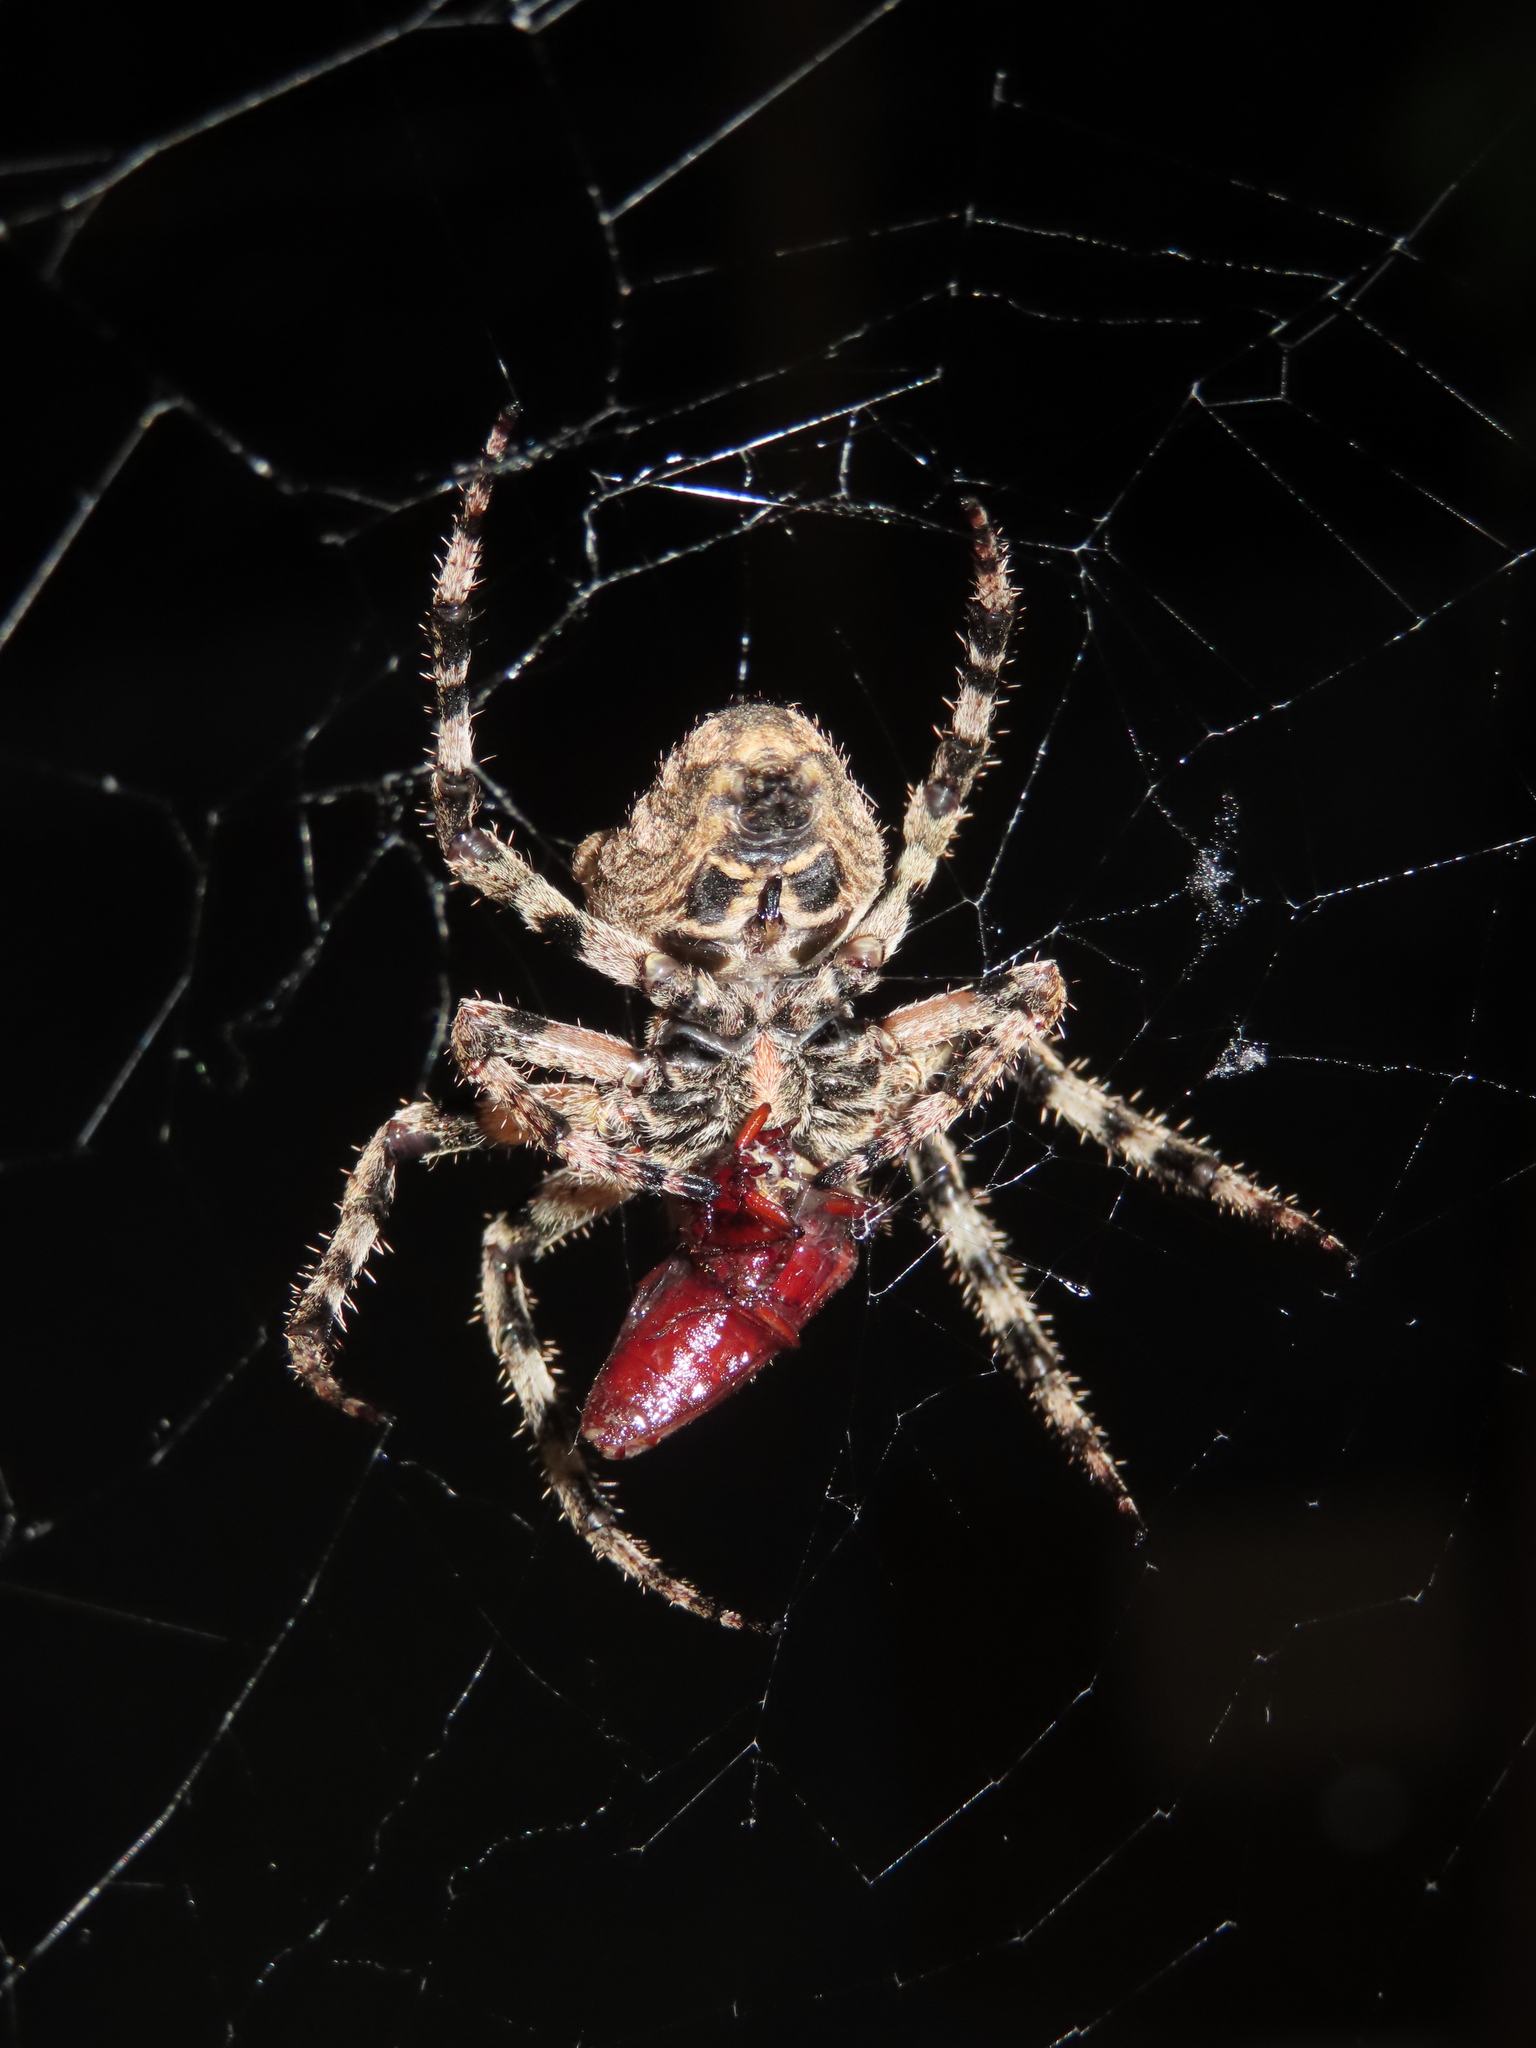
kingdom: Animalia
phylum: Arthropoda
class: Arachnida
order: Araneae
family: Araneidae
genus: Araneus
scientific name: Araneus angulatus
